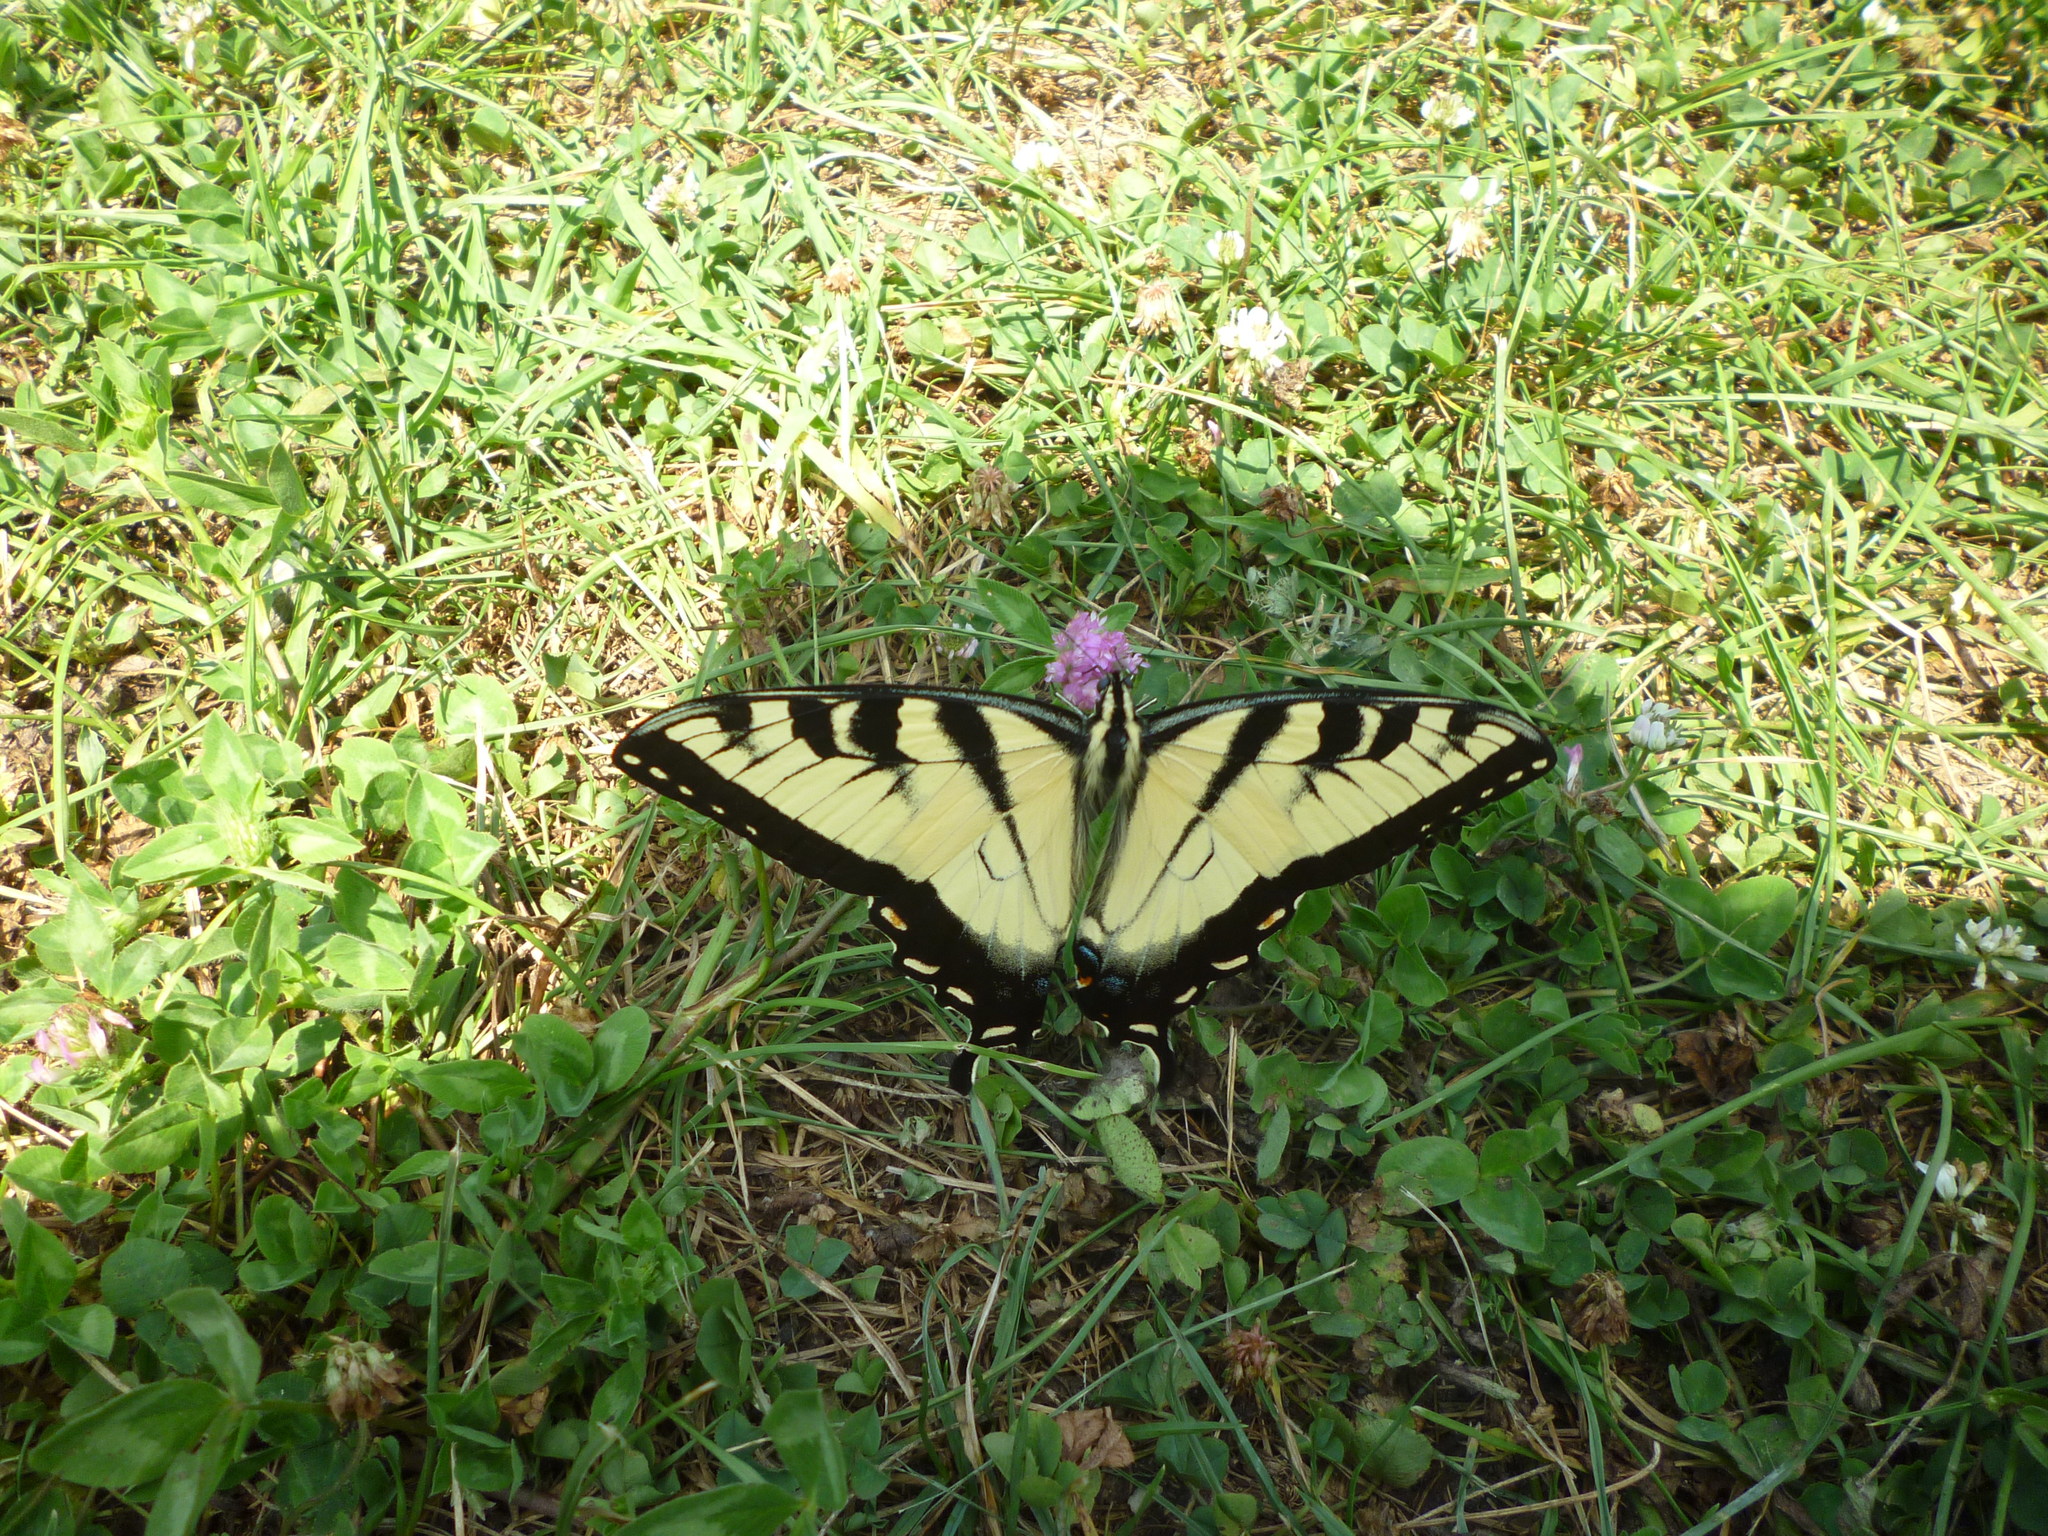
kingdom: Plantae
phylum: Tracheophyta
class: Magnoliopsida
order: Fabales
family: Fabaceae
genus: Trifolium
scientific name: Trifolium pratense
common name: Red clover
